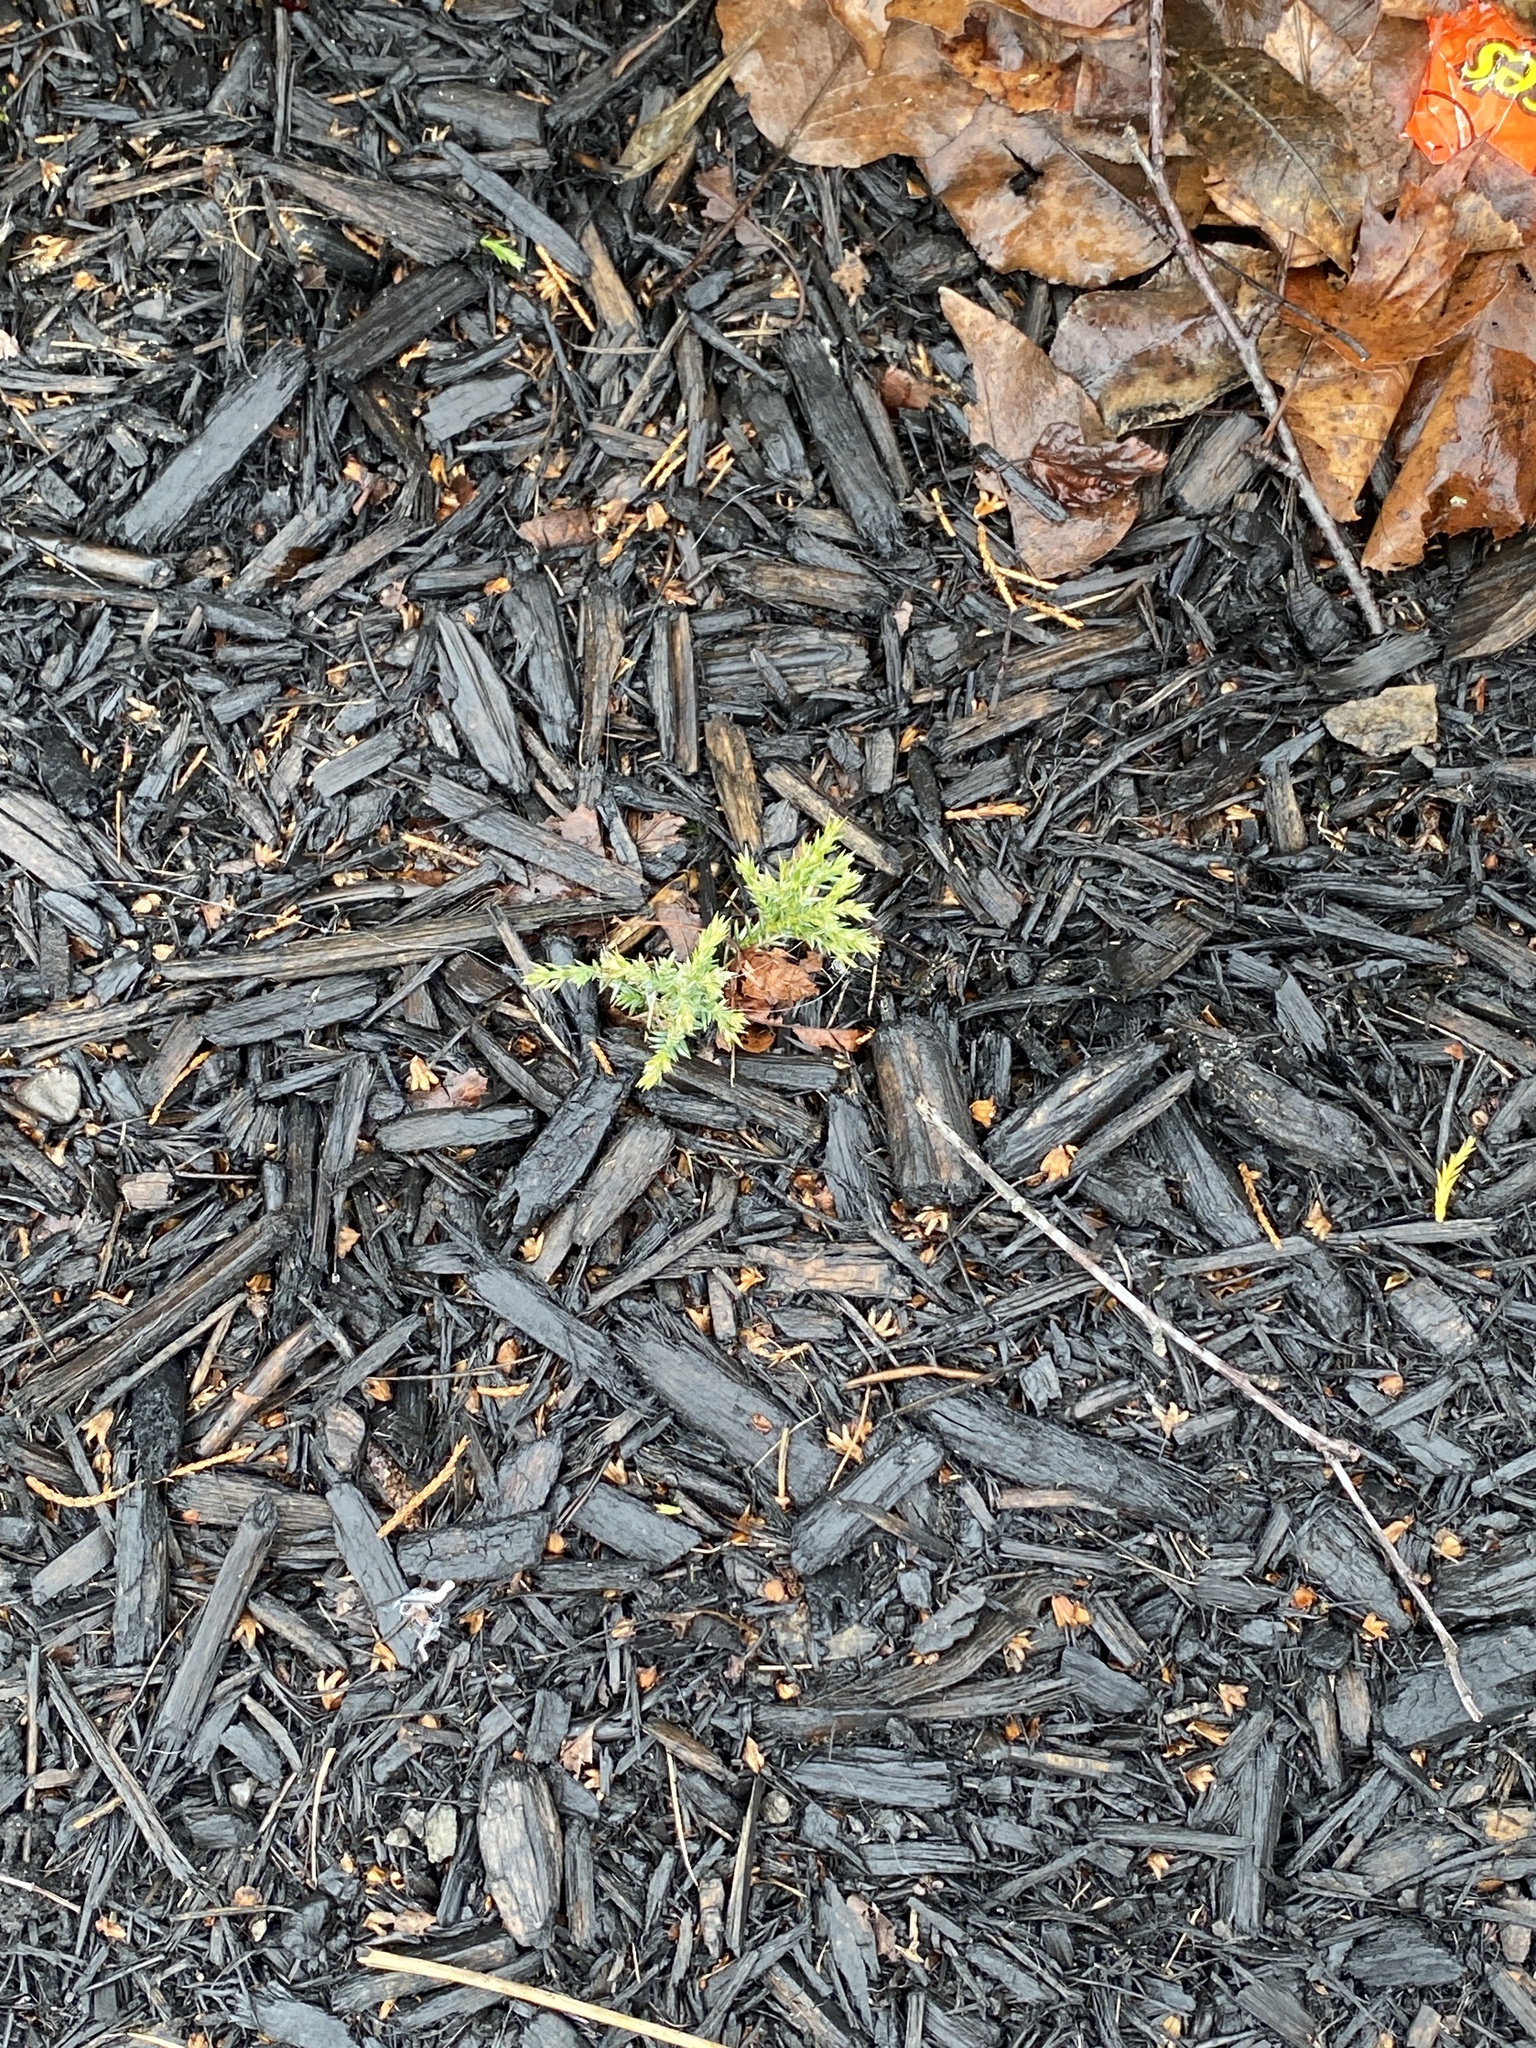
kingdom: Plantae
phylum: Tracheophyta
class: Pinopsida
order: Pinales
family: Cupressaceae
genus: Juniperus
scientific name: Juniperus virginiana
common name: Red juniper
